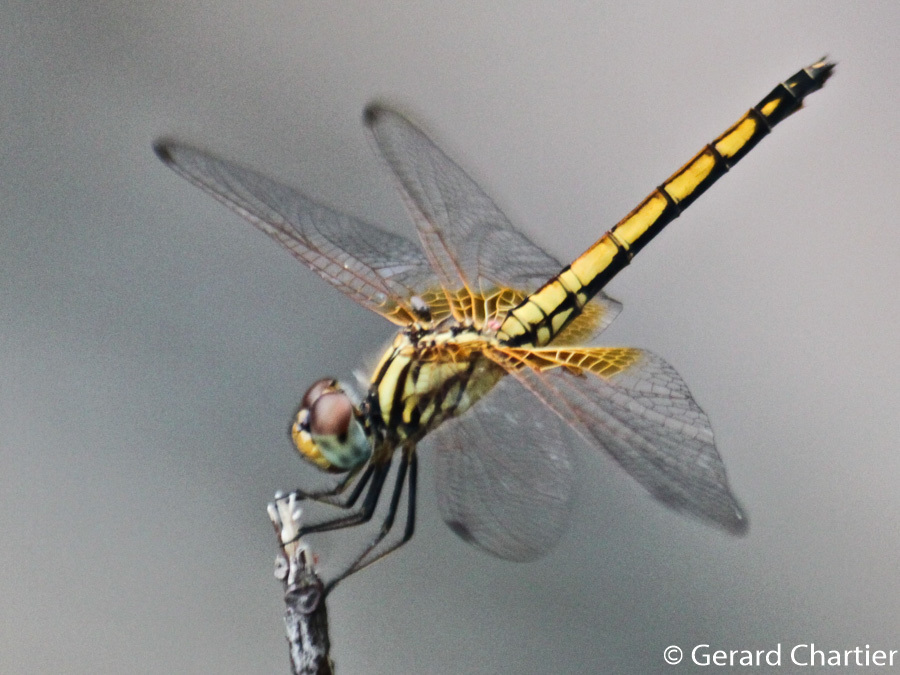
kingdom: Animalia
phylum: Arthropoda
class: Insecta
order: Odonata
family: Libellulidae
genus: Trithemis
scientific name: Trithemis aurora
